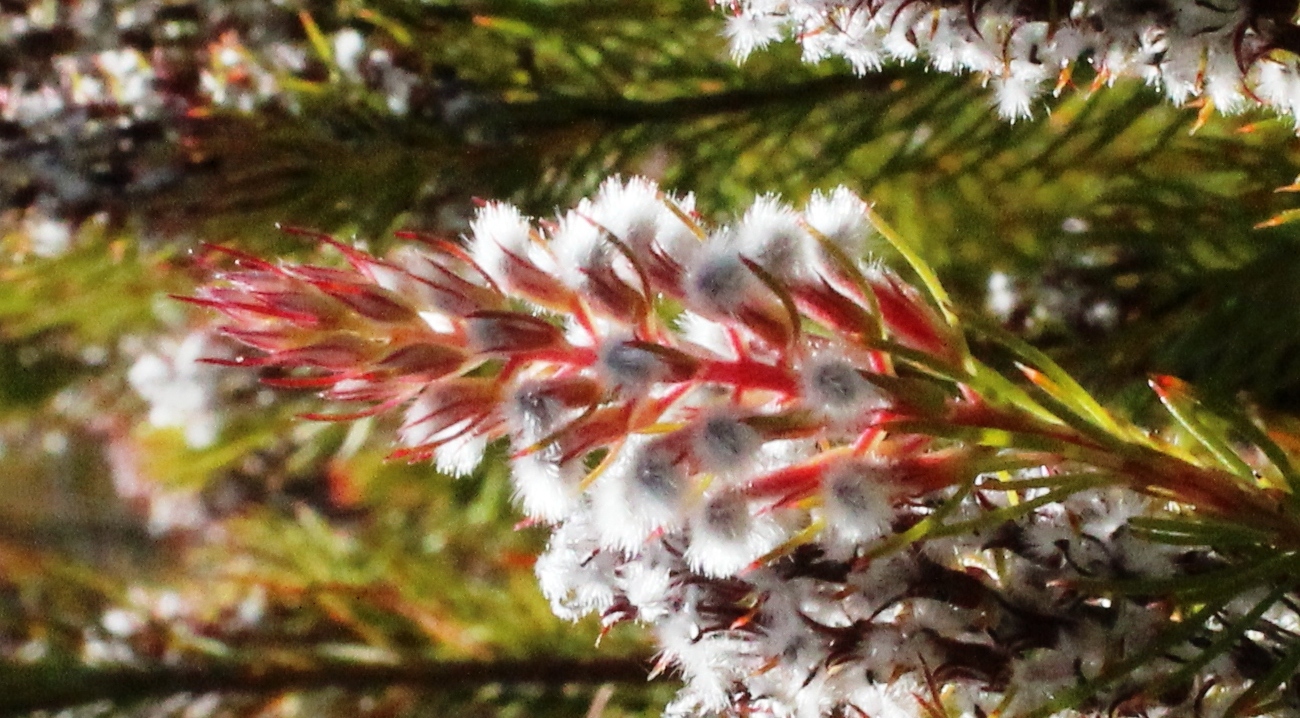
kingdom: Plantae
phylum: Tracheophyta
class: Magnoliopsida
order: Proteales
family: Proteaceae
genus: Spatalla
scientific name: Spatalla parilis
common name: Spike spoon
